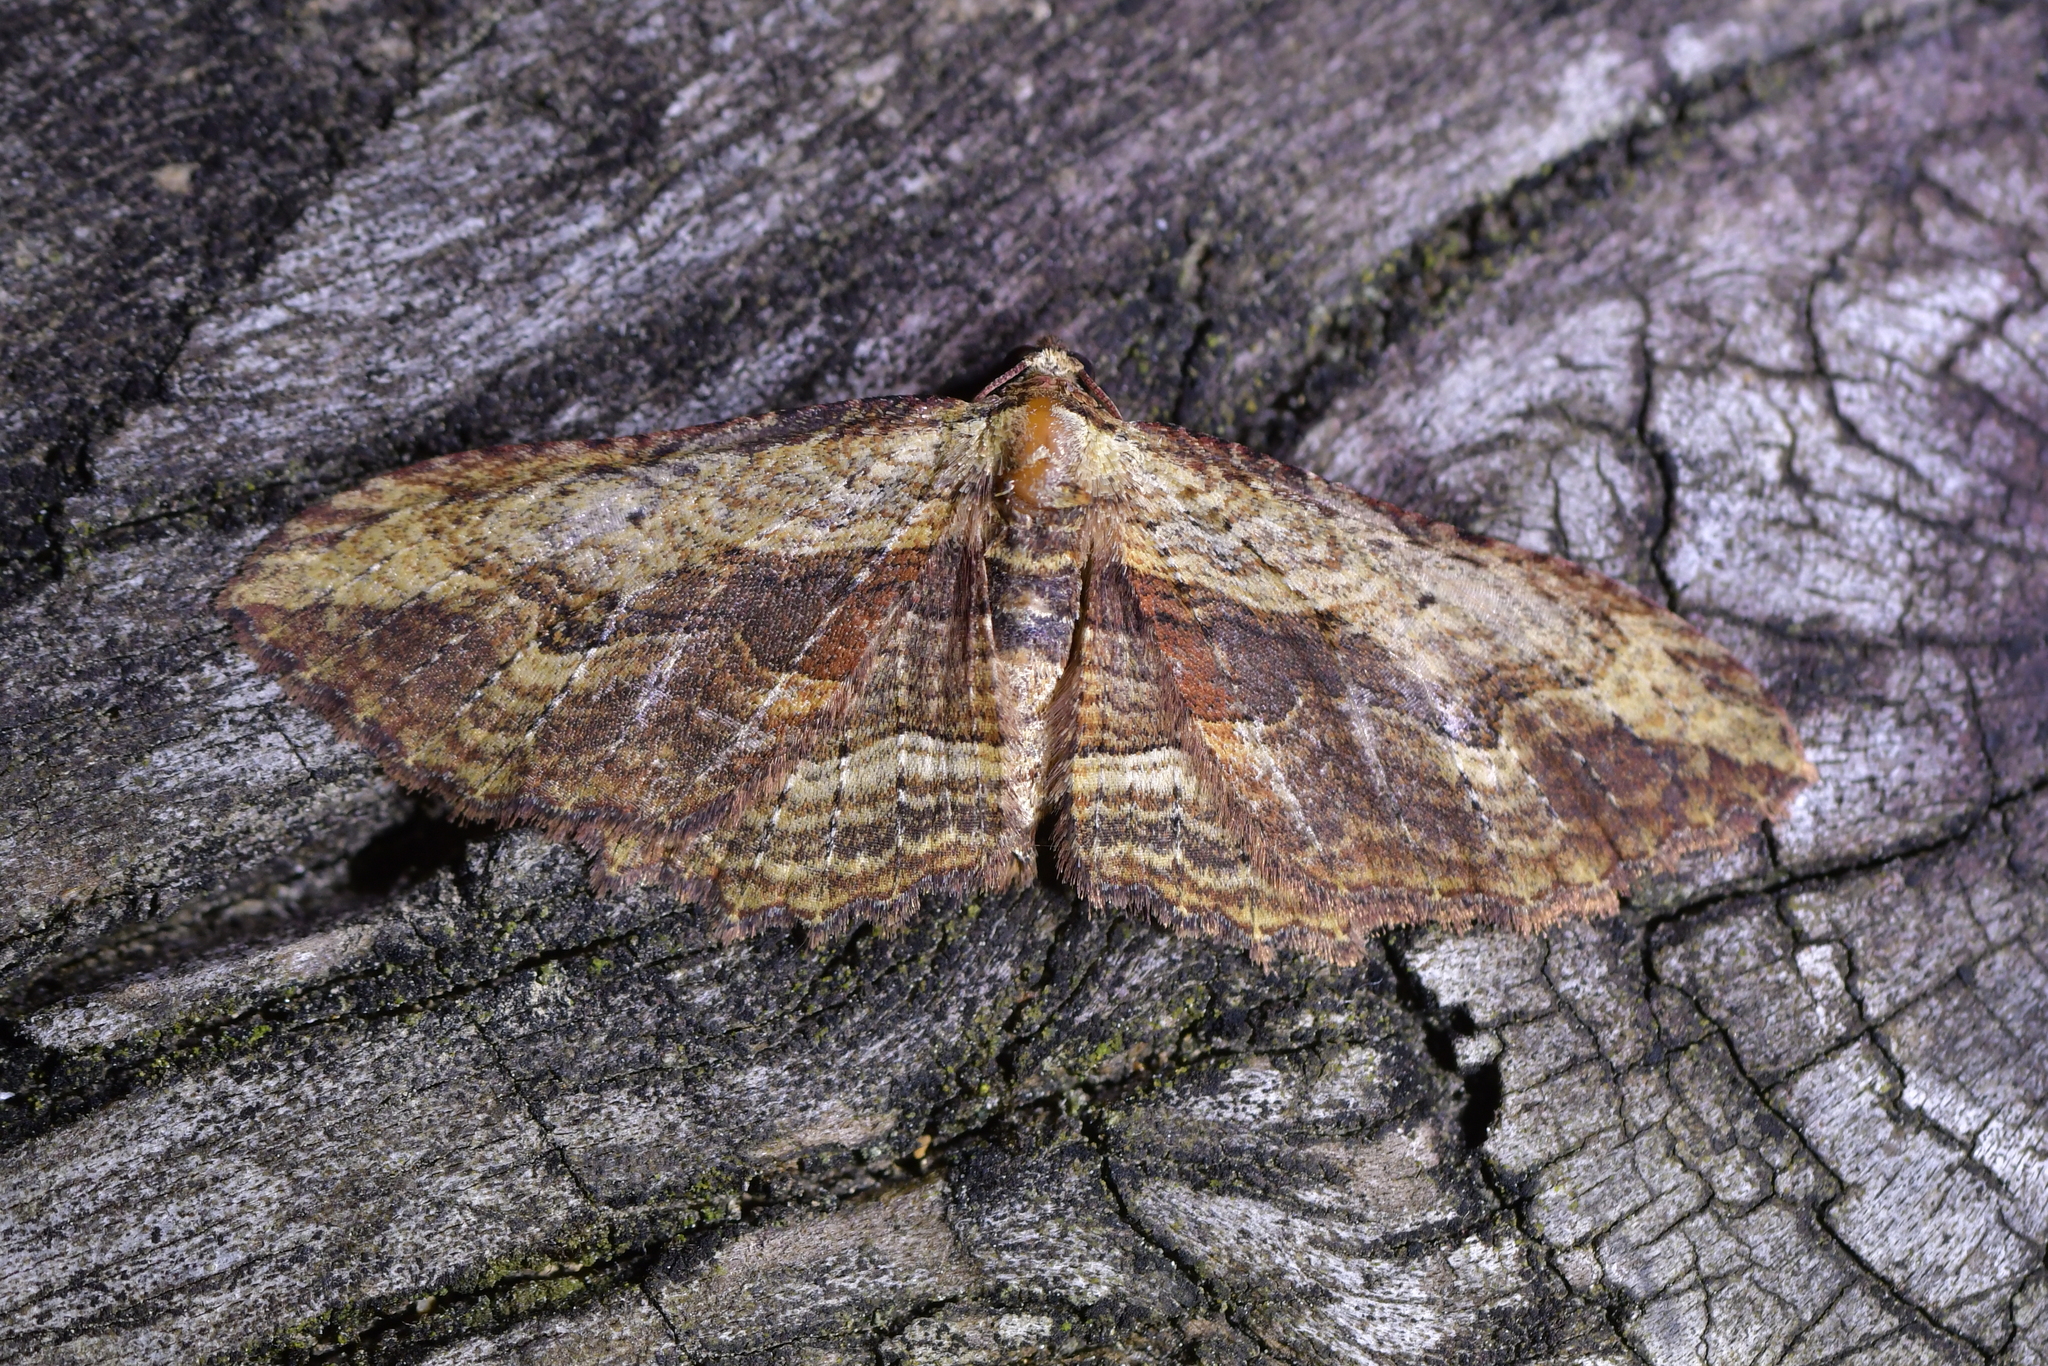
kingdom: Animalia
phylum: Arthropoda
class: Insecta
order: Lepidoptera
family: Geometridae
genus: Austrocidaria
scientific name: Austrocidaria bipartita
